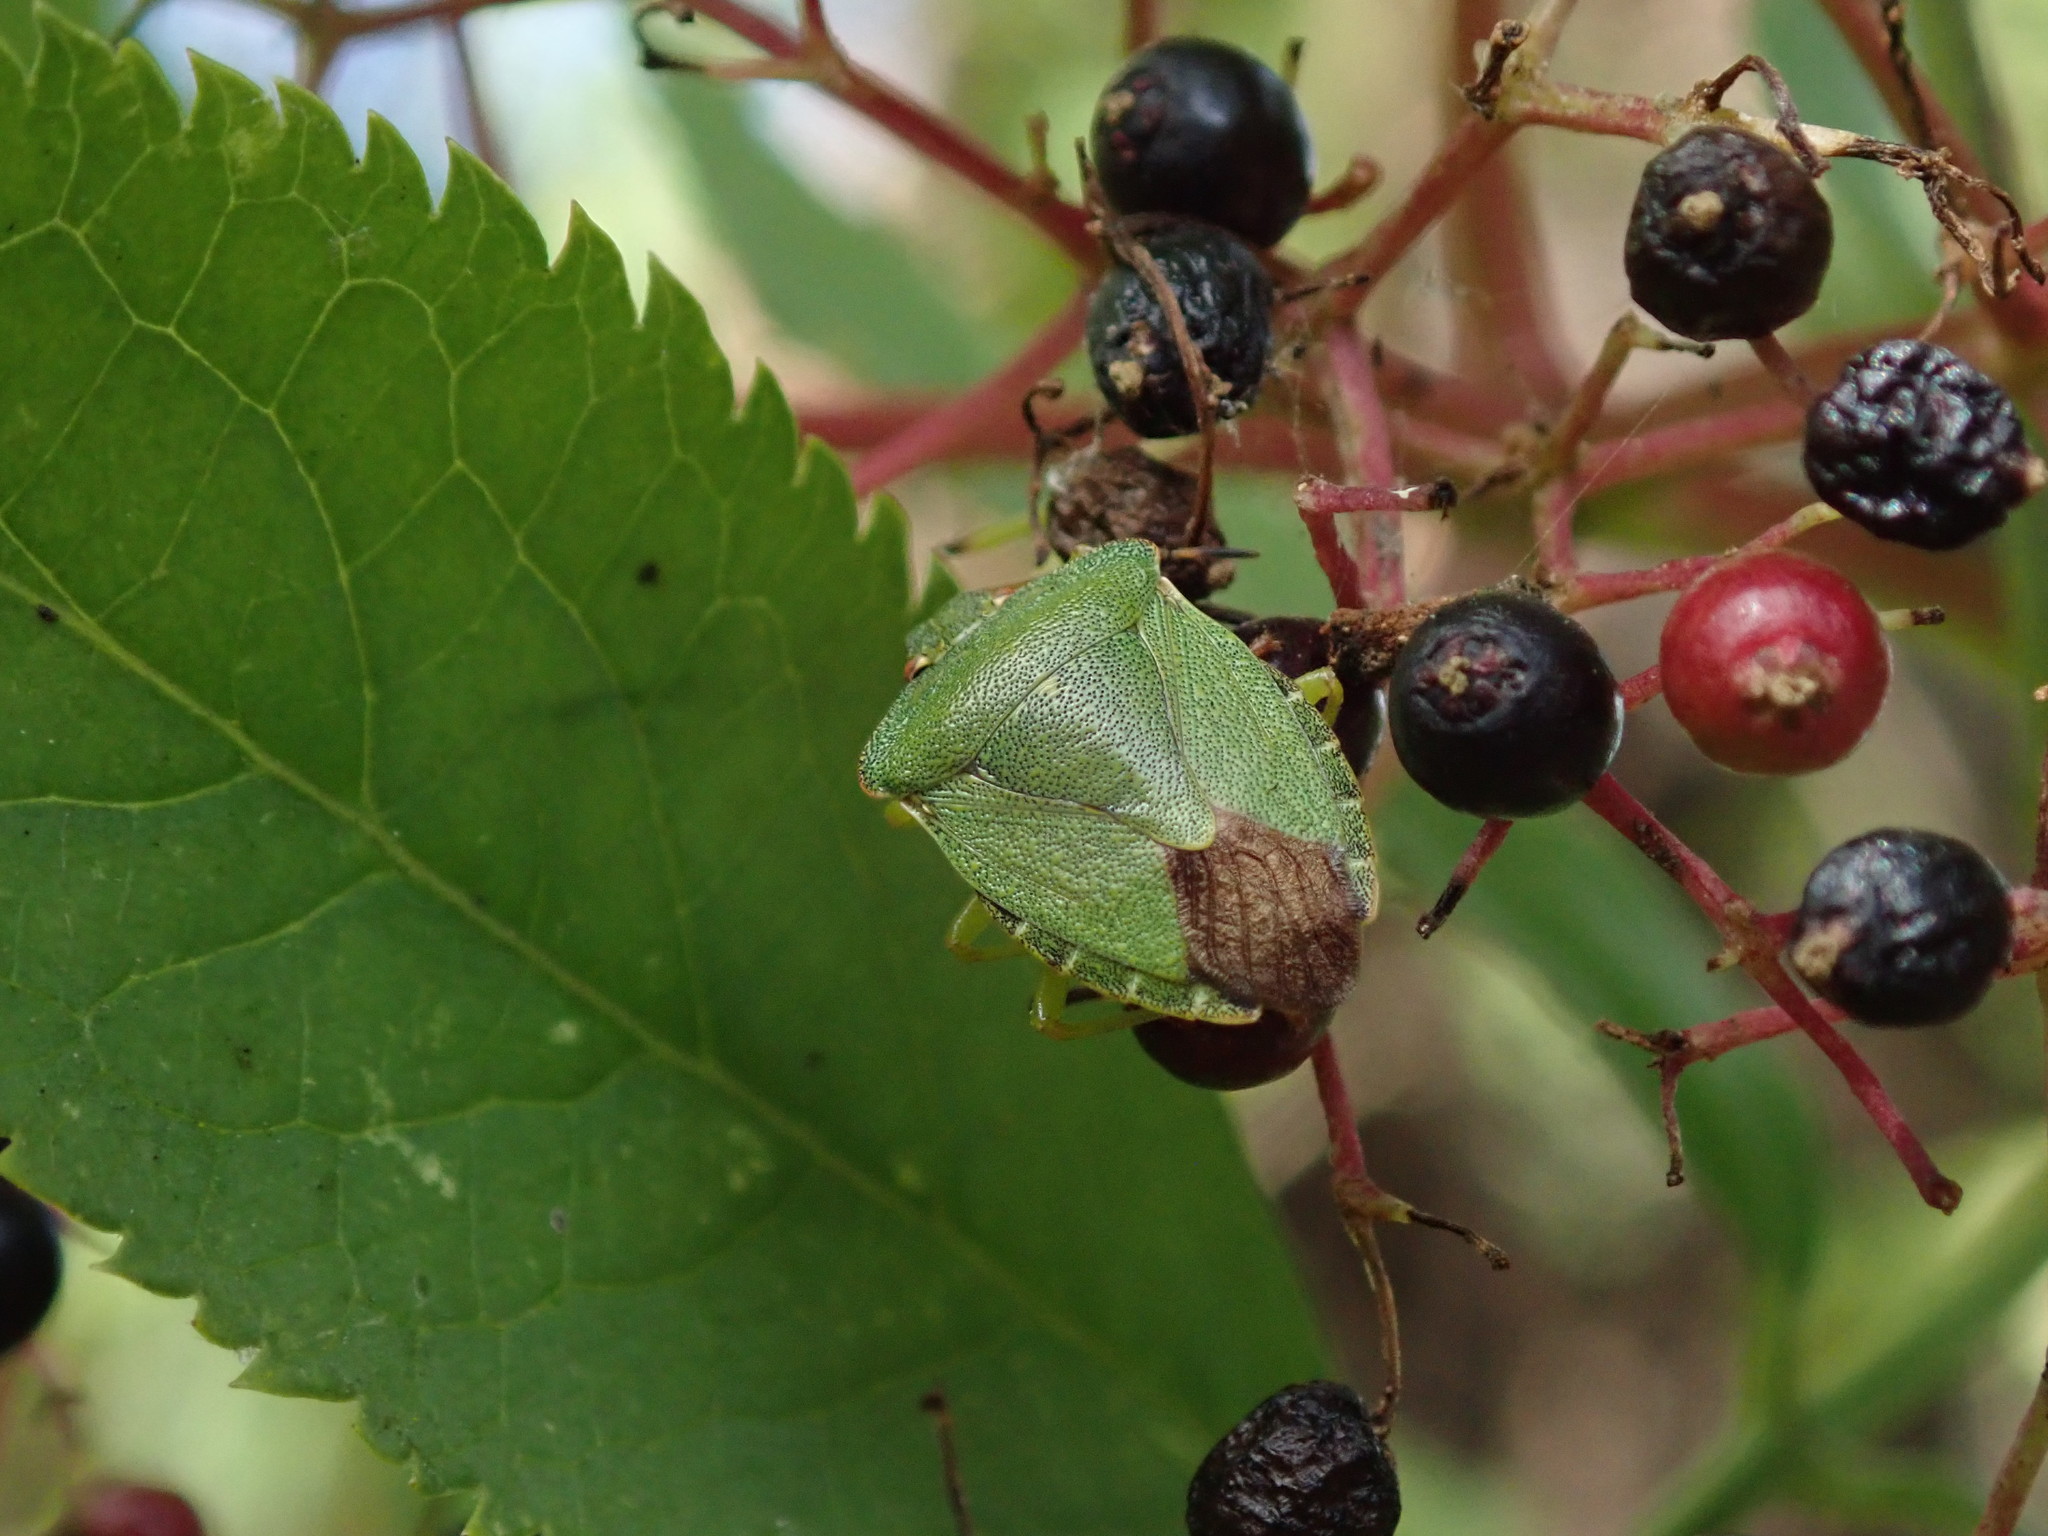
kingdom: Animalia
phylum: Arthropoda
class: Insecta
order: Hemiptera
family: Pentatomidae
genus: Palomena
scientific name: Palomena prasina
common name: Green shieldbug
